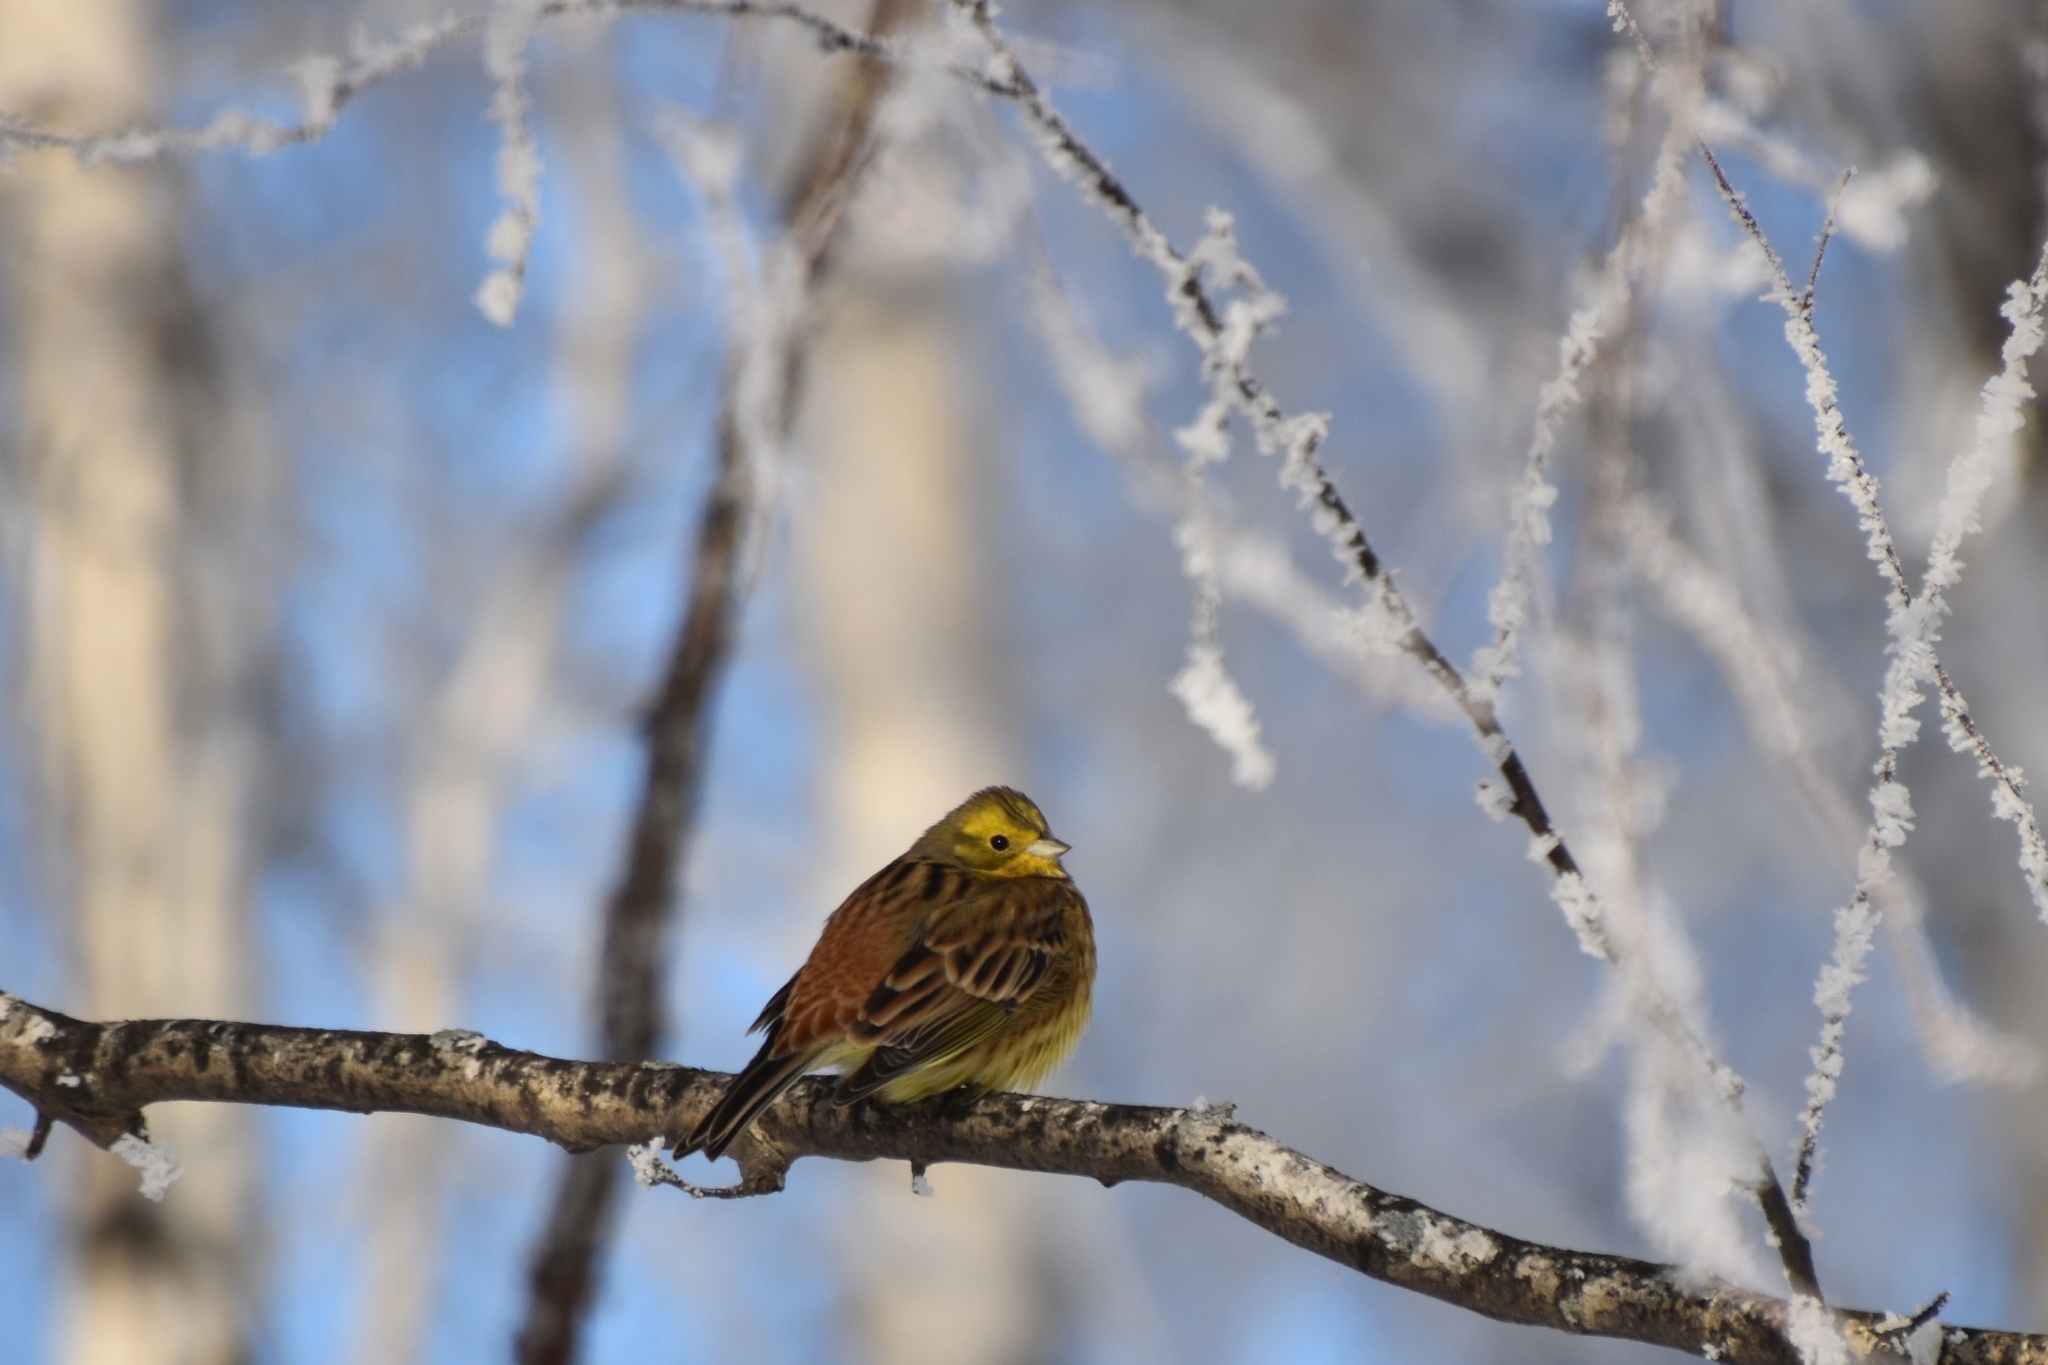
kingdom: Animalia
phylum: Chordata
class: Aves
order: Passeriformes
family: Emberizidae
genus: Emberiza
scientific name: Emberiza citrinella
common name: Yellowhammer
